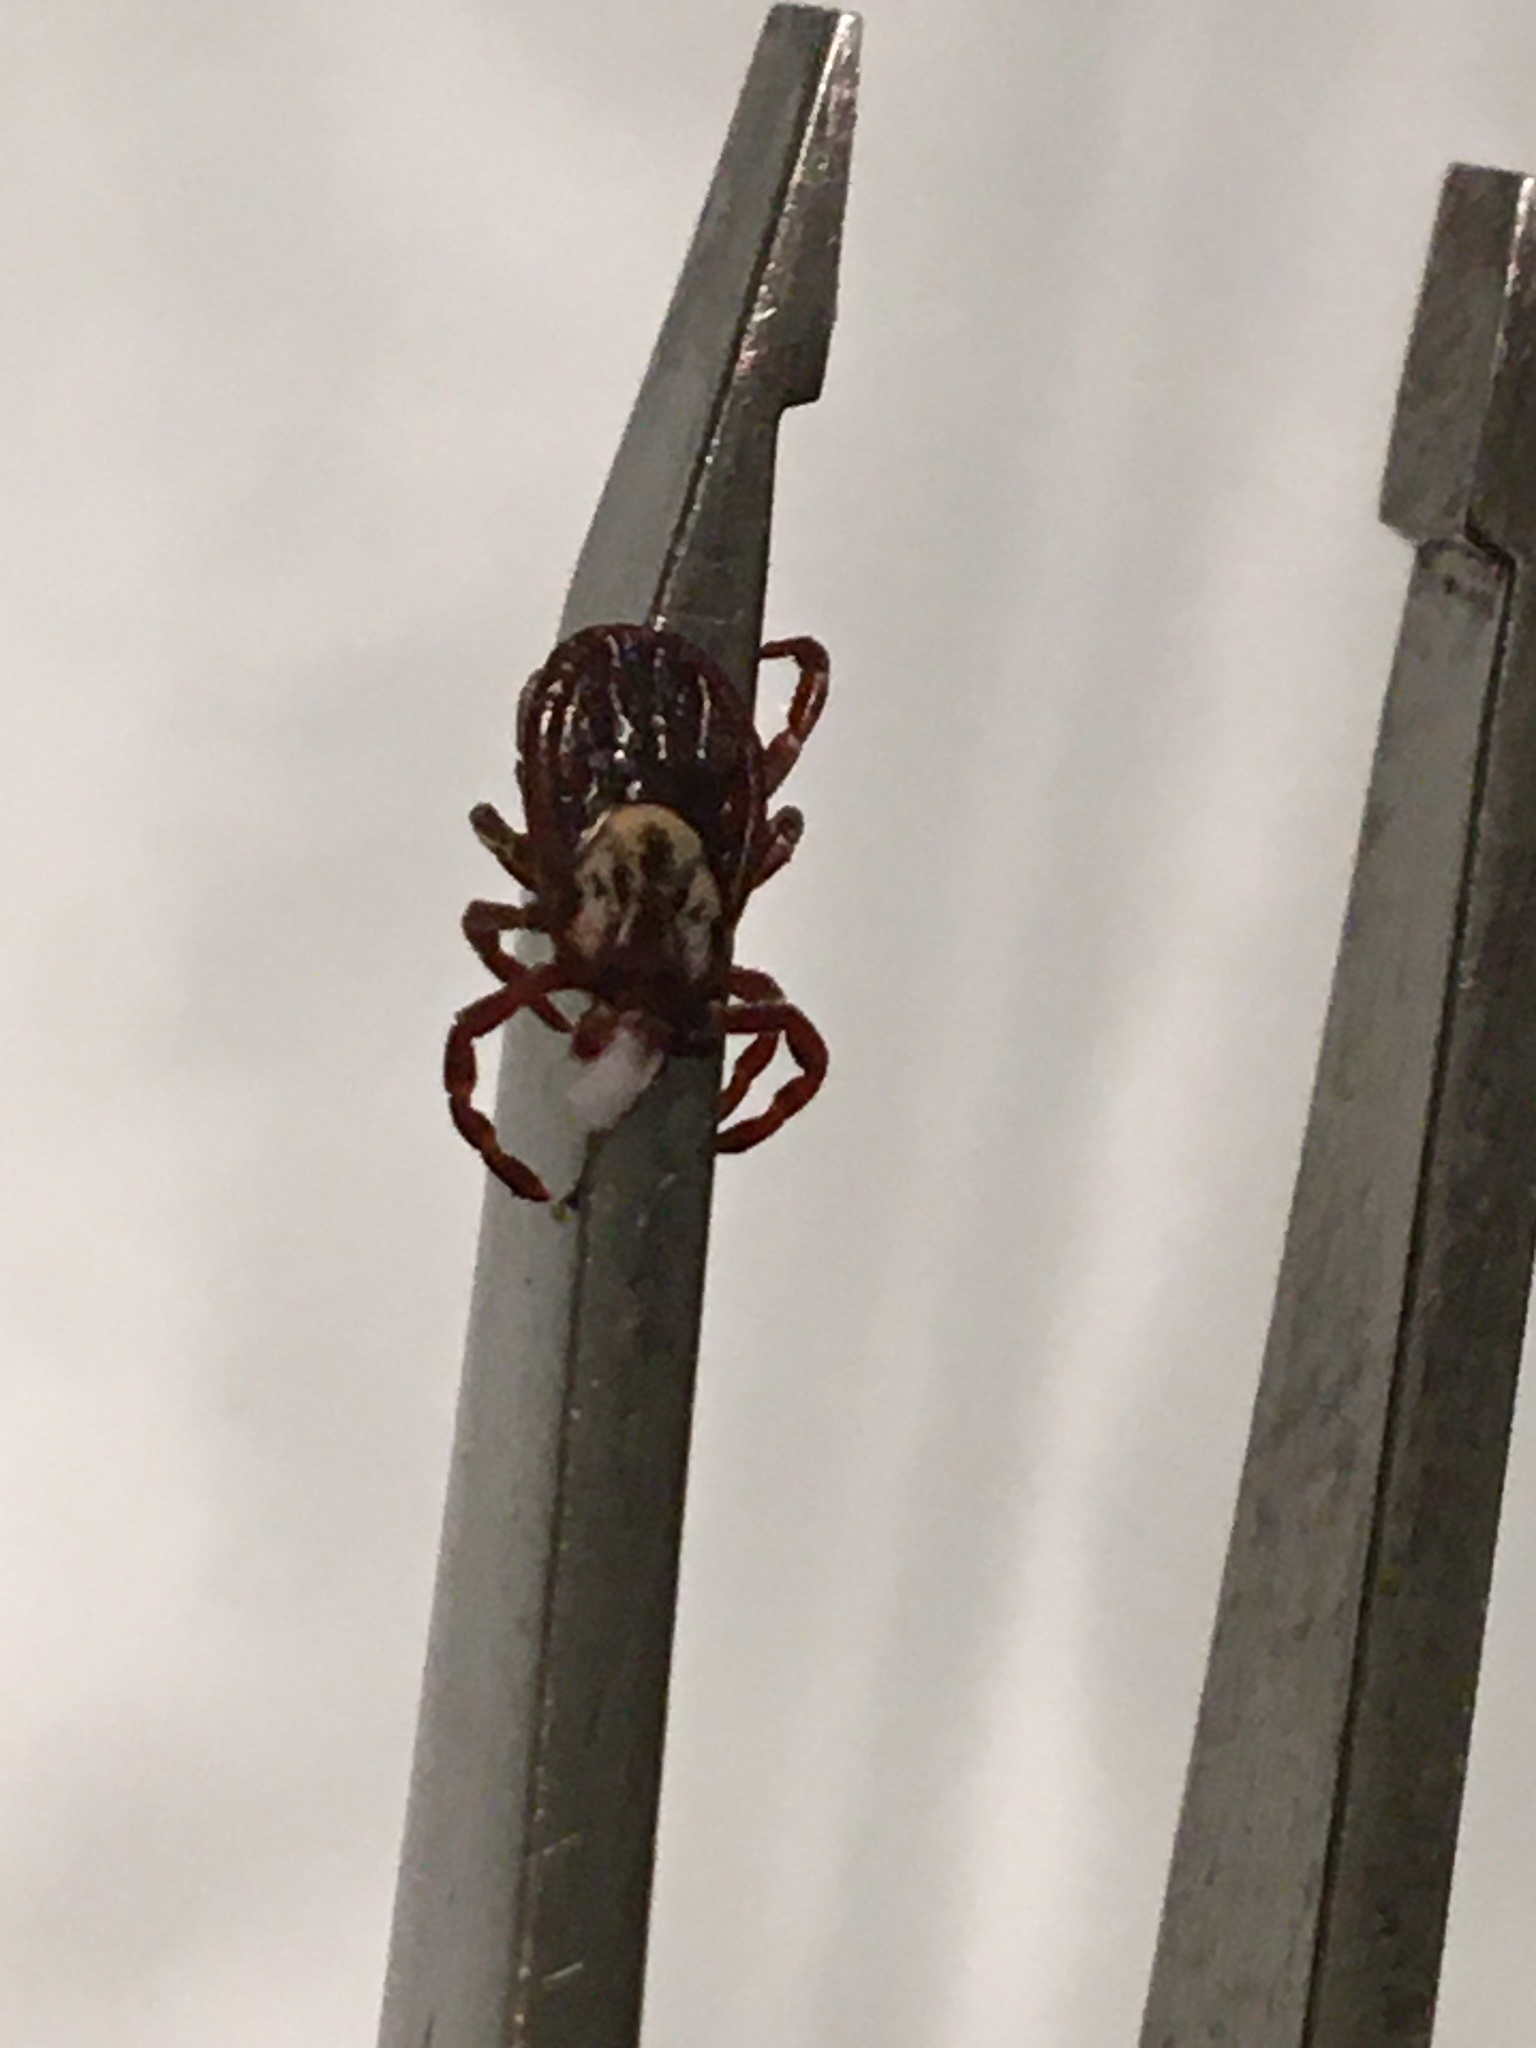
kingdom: Animalia
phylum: Arthropoda
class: Arachnida
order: Ixodida
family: Ixodidae
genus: Dermacentor
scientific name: Dermacentor variabilis
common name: American dog tick
